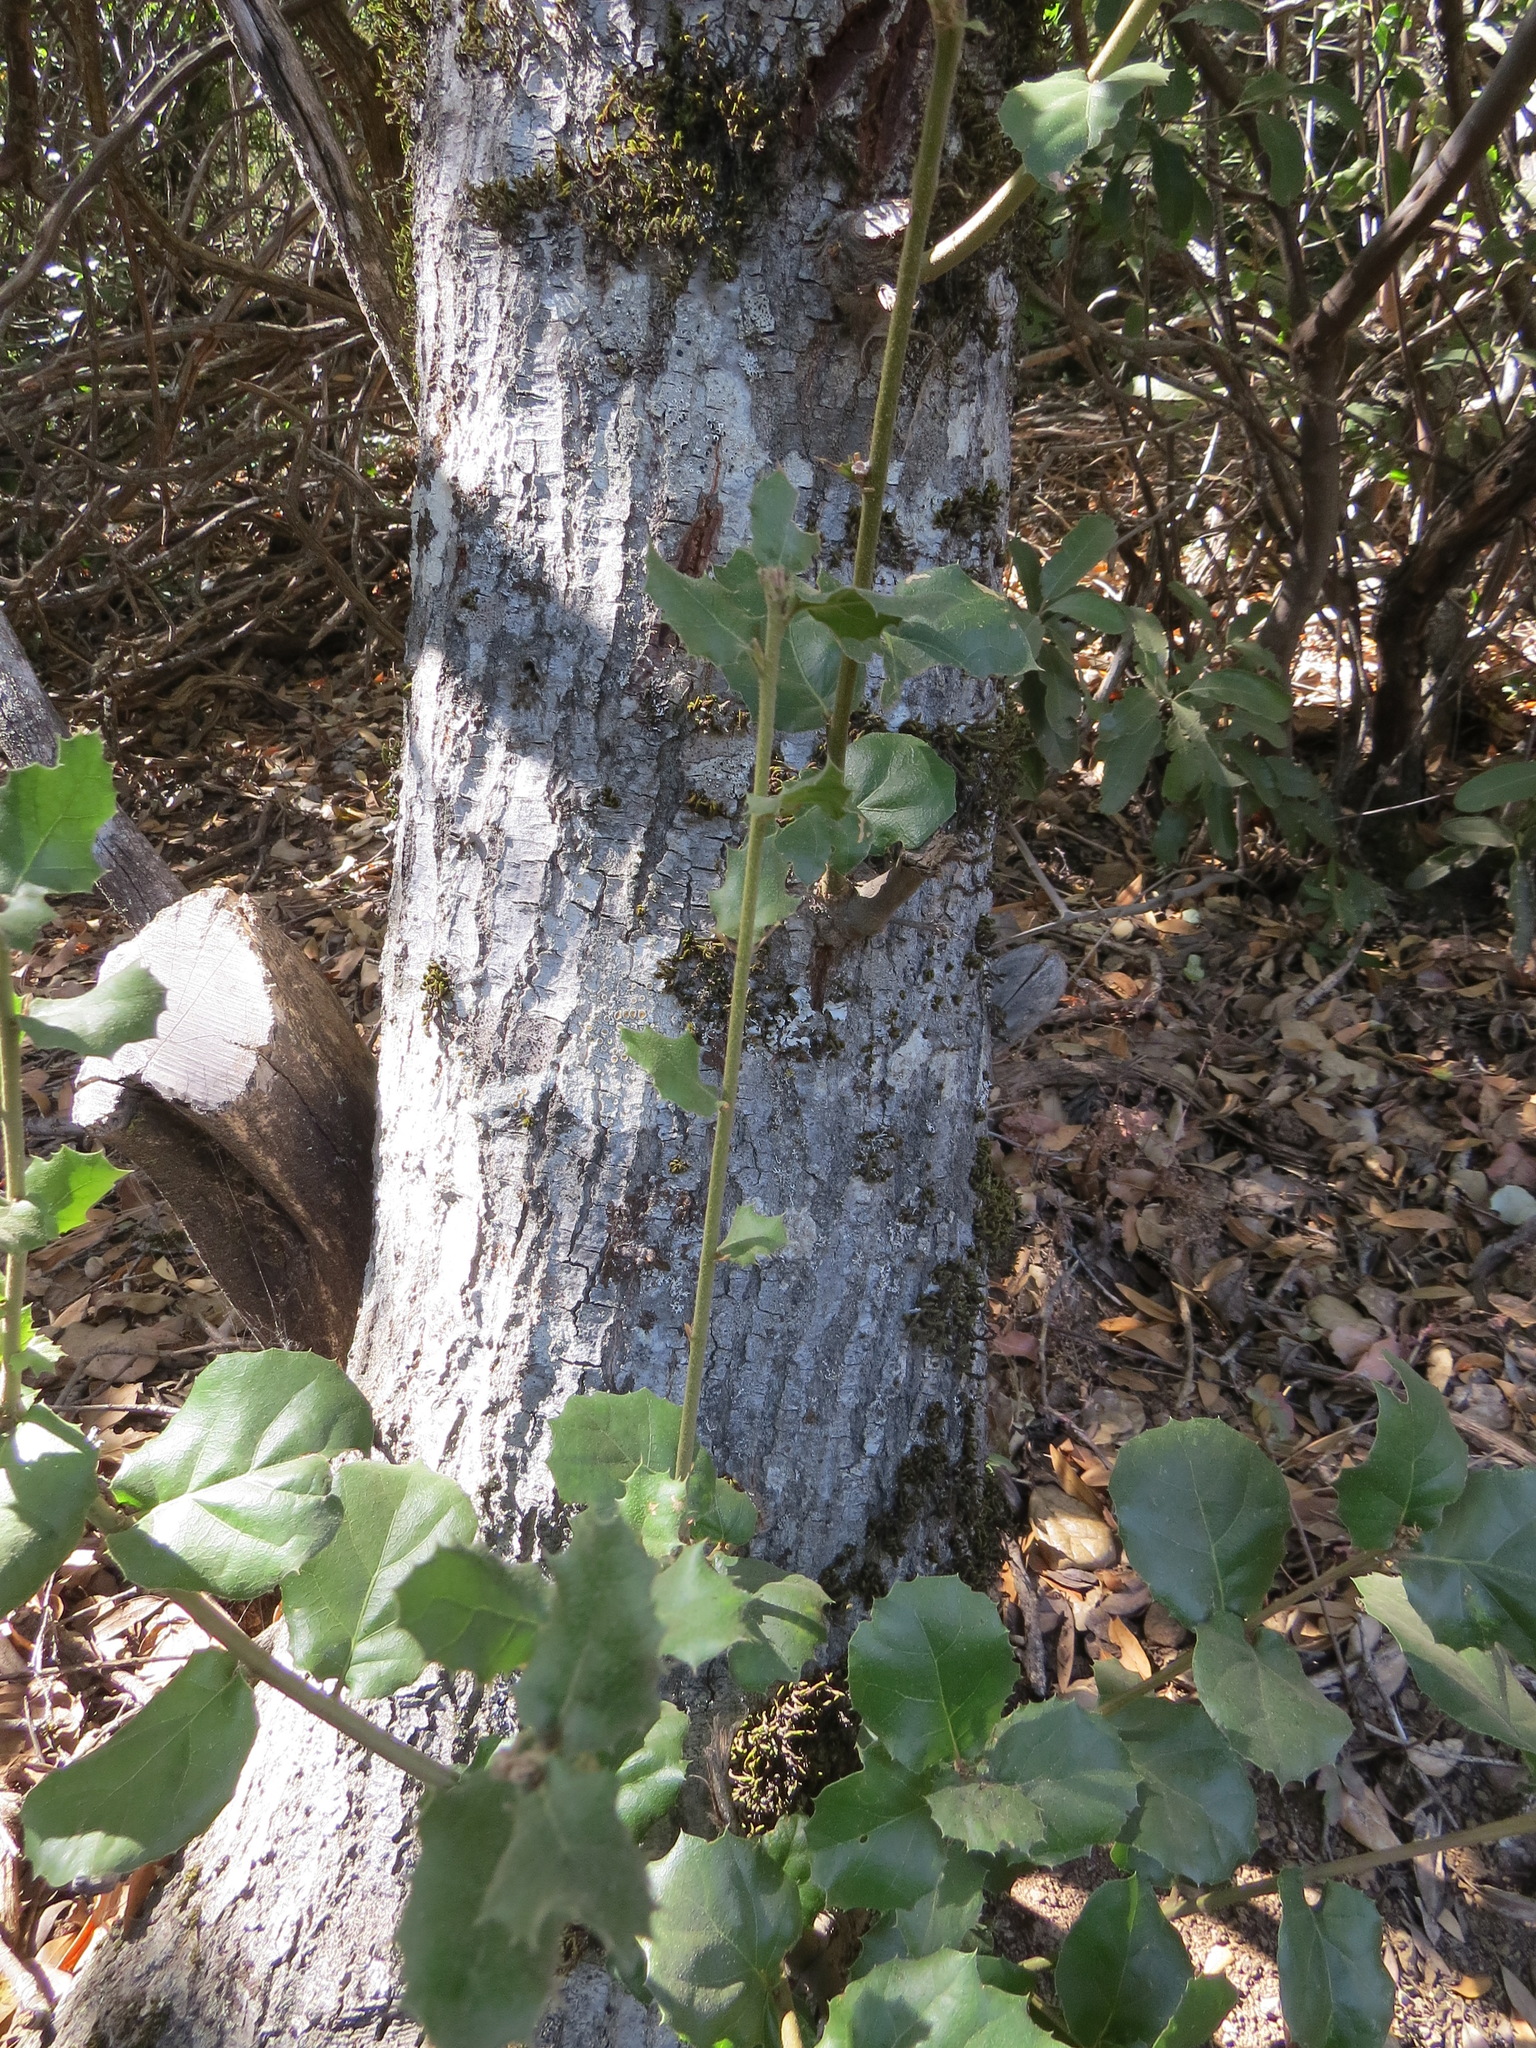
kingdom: Plantae
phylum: Tracheophyta
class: Magnoliopsida
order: Fagales
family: Fagaceae
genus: Quercus
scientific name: Quercus agrifolia
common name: California live oak
